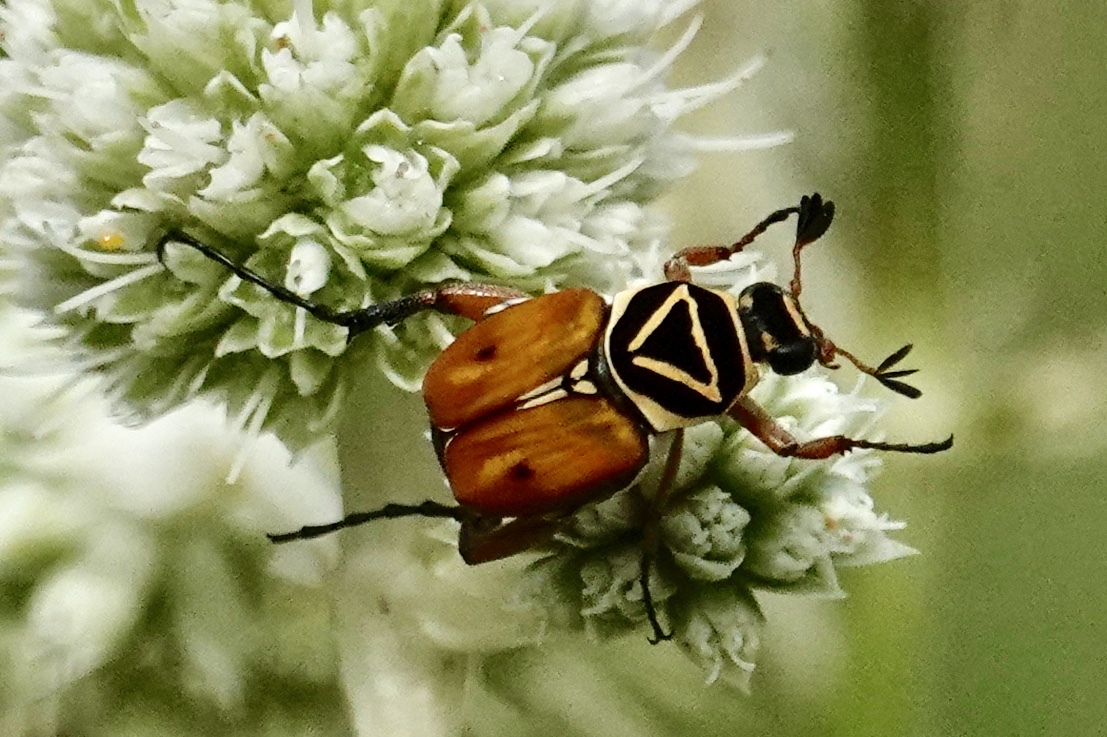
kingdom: Animalia
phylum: Arthropoda
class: Insecta
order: Coleoptera
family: Scarabaeidae
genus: Trigonopeltastes
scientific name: Trigonopeltastes delta
